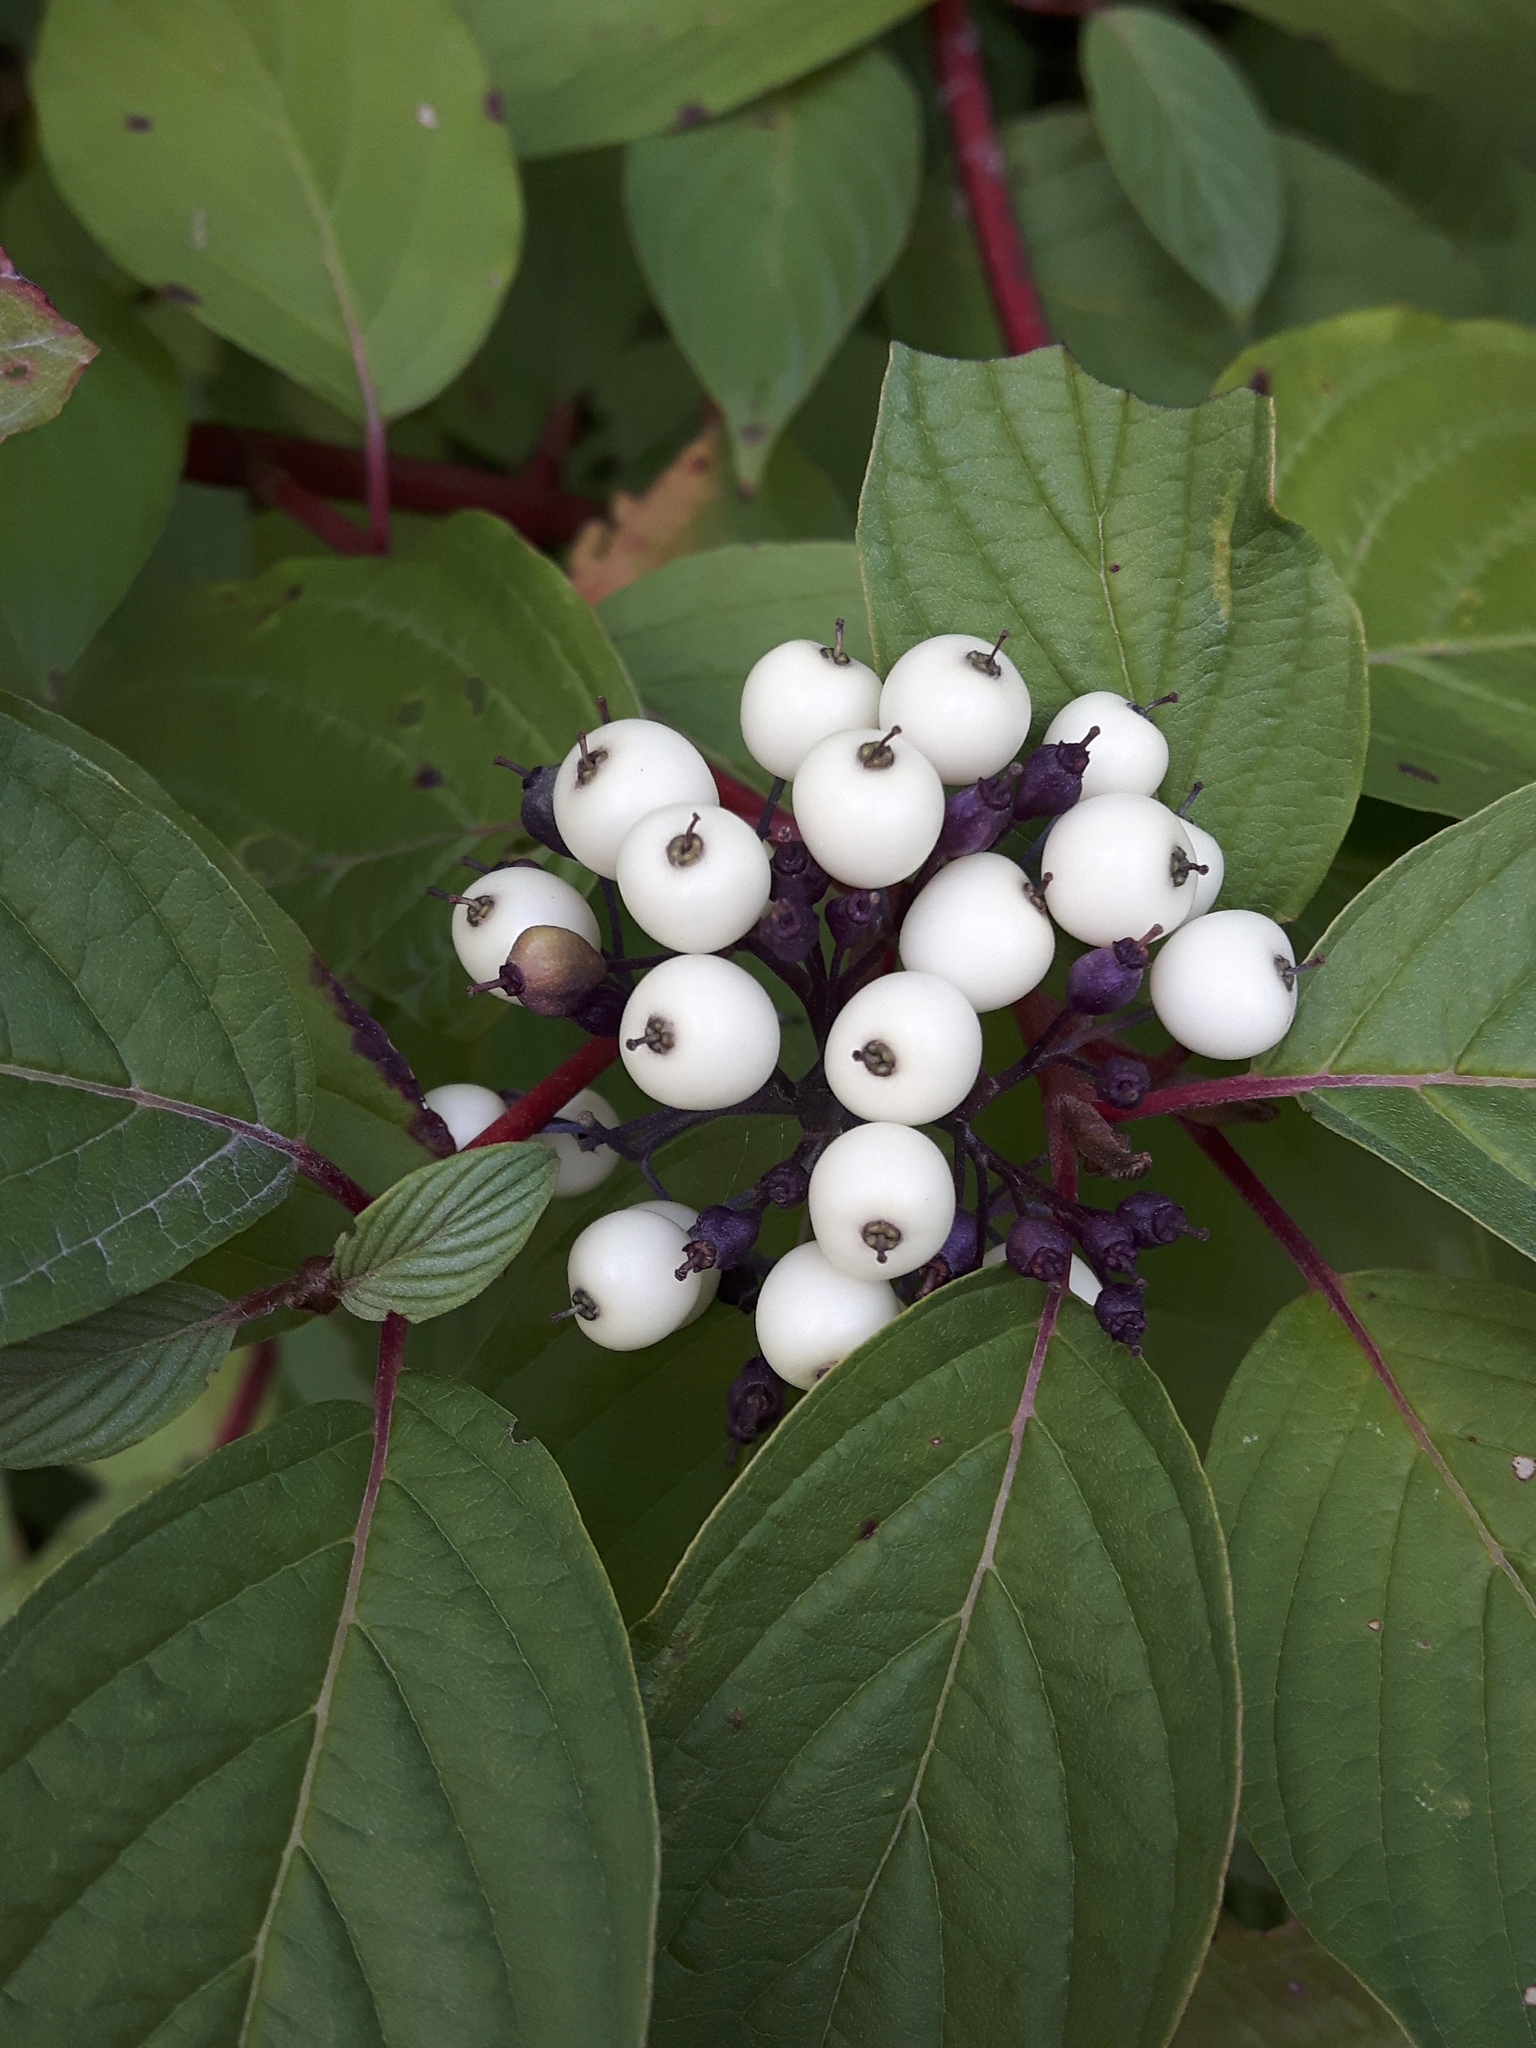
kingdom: Plantae
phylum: Tracheophyta
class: Magnoliopsida
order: Cornales
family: Cornaceae
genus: Cornus
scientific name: Cornus sericea
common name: Red-osier dogwood
